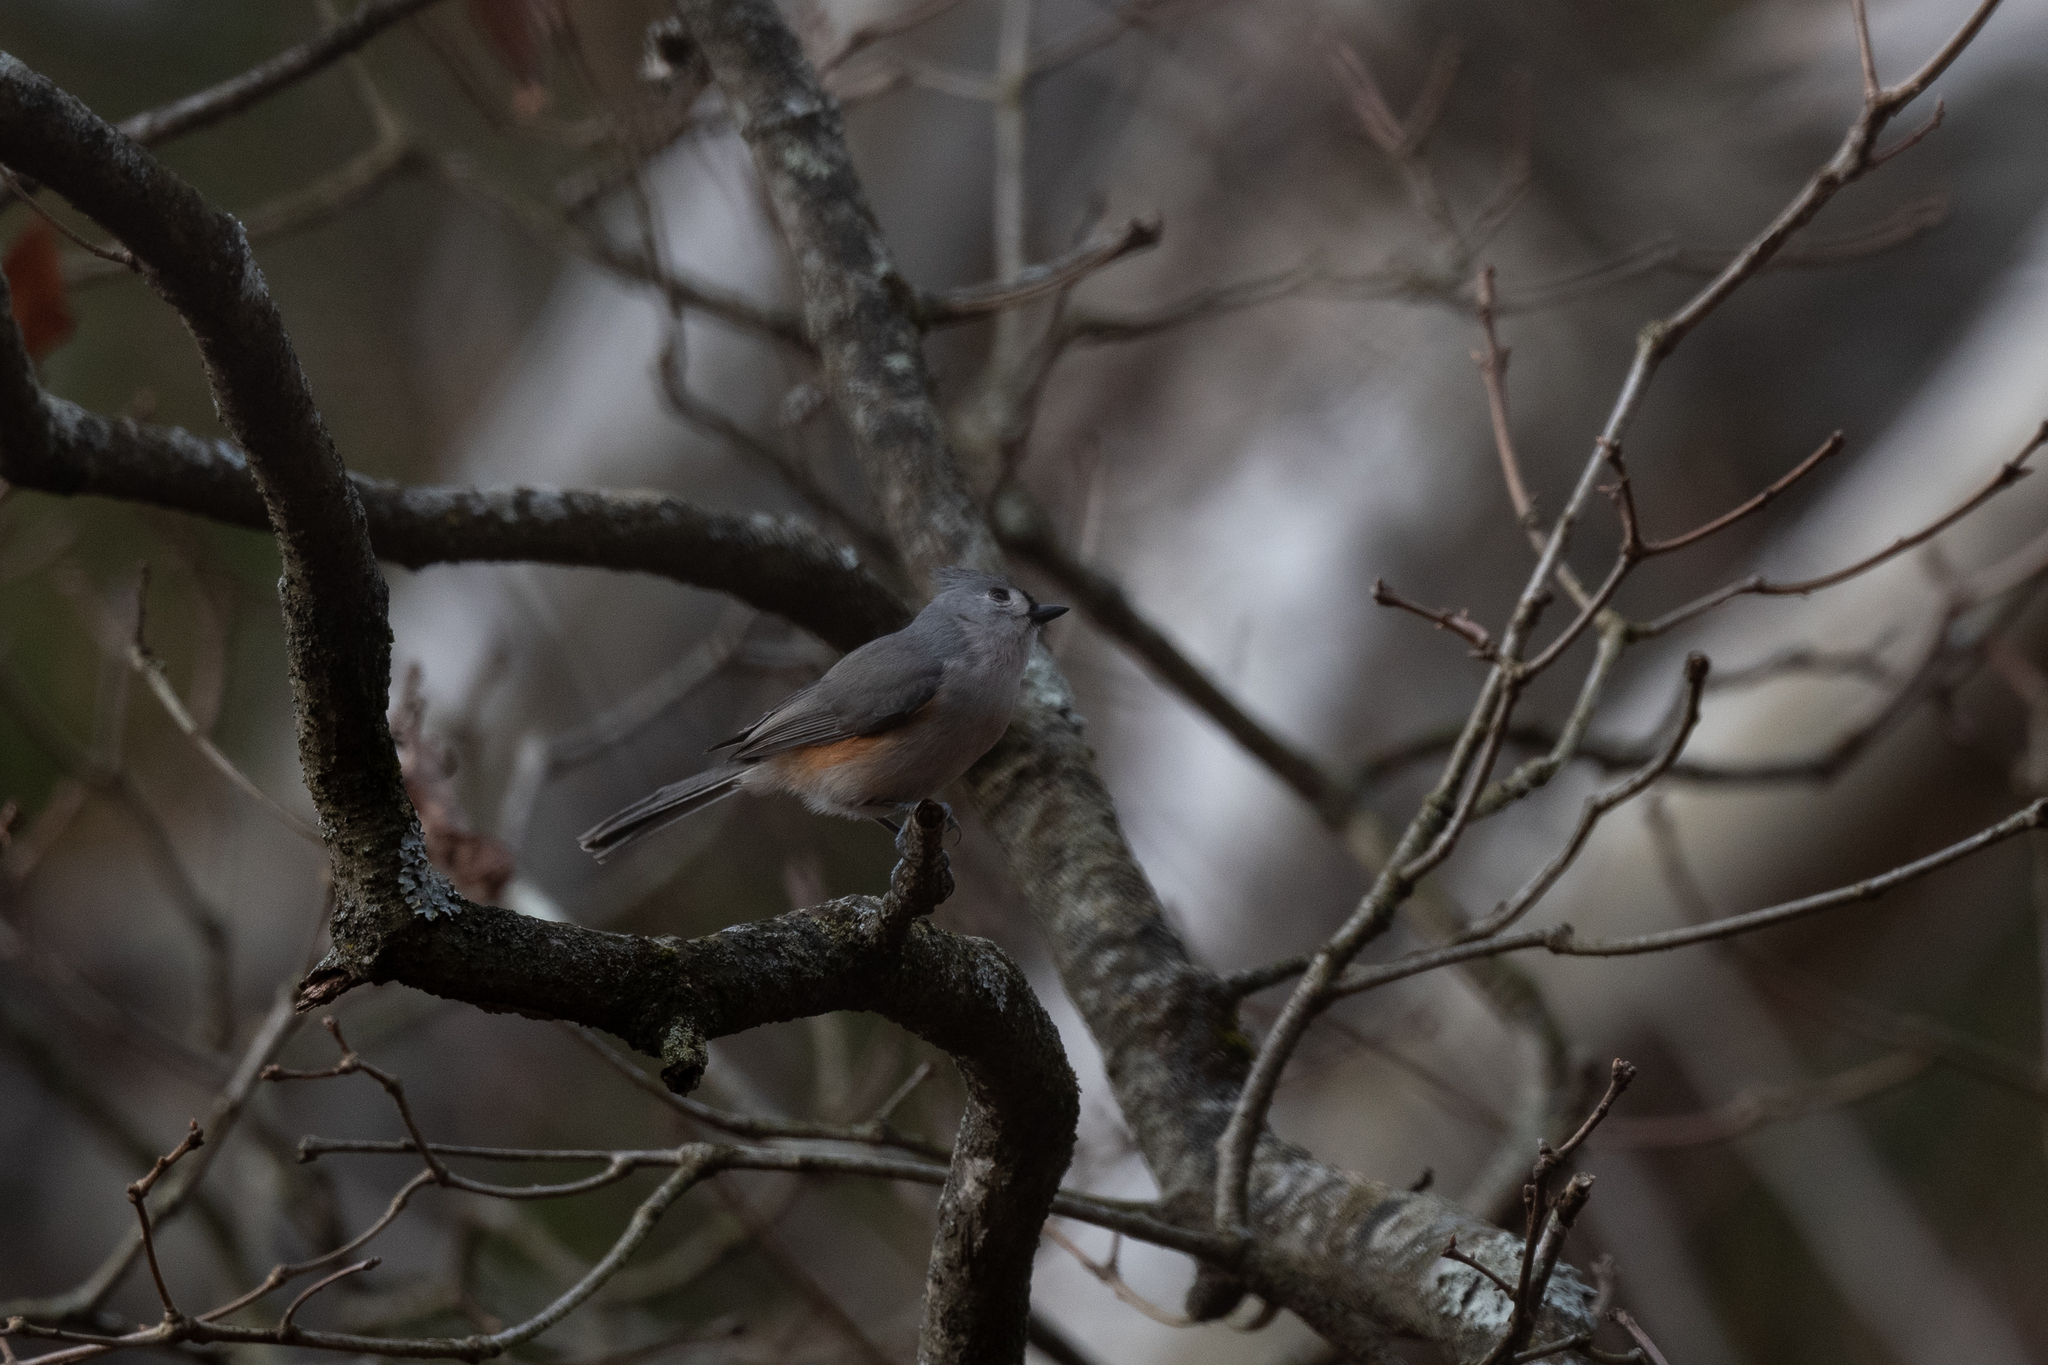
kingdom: Animalia
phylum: Chordata
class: Aves
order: Passeriformes
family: Paridae
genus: Baeolophus
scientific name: Baeolophus bicolor
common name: Tufted titmouse
